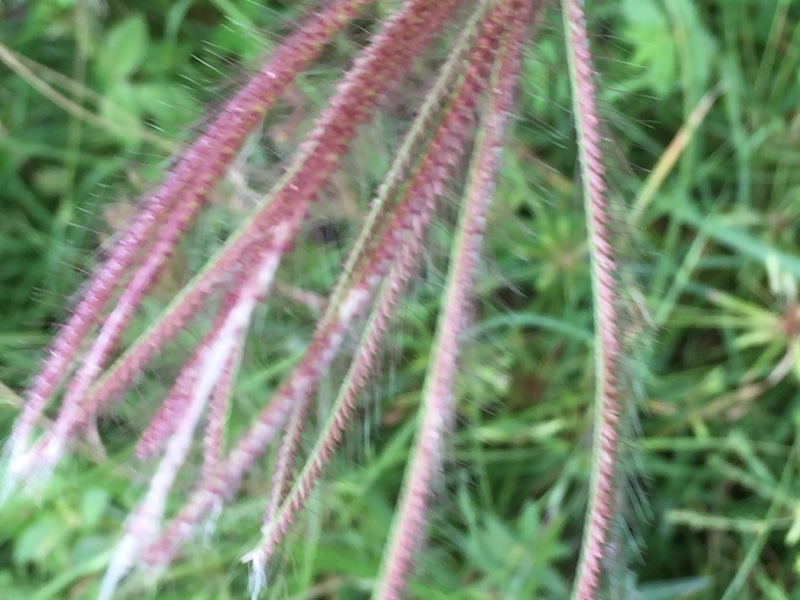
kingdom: Plantae
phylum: Tracheophyta
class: Liliopsida
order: Poales
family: Poaceae
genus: Chloris
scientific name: Chloris virgata
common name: Feathery rhodes-grass
